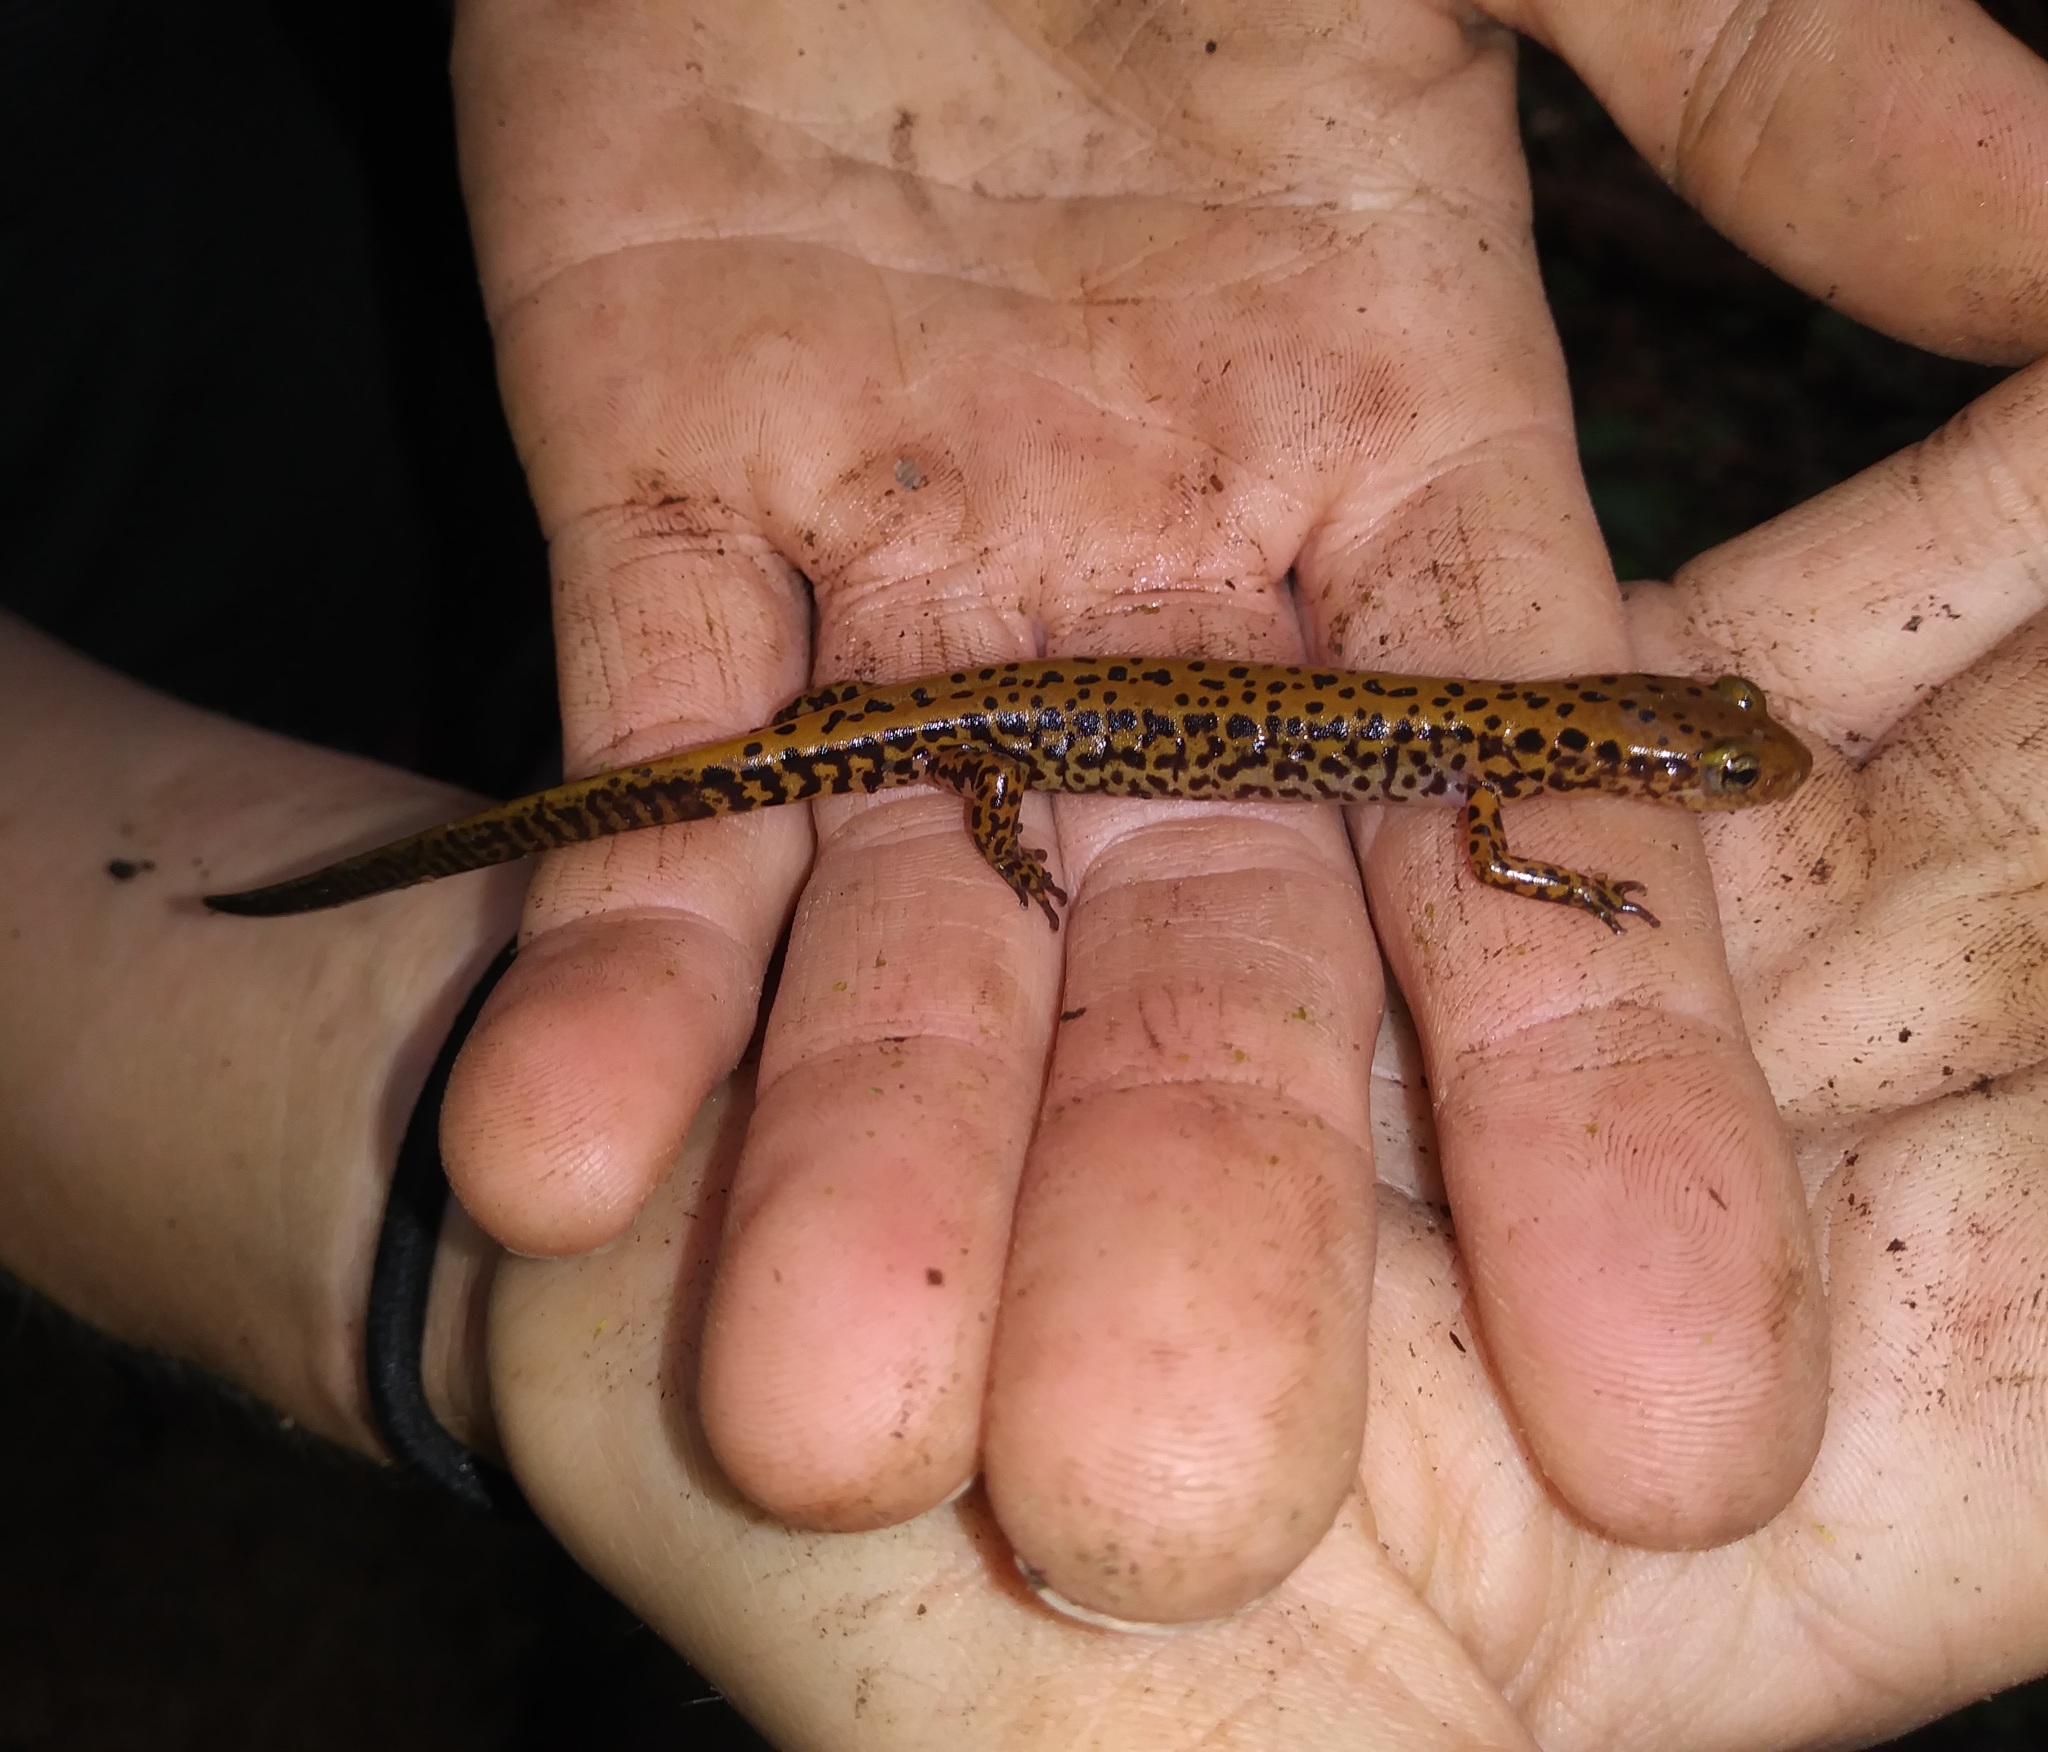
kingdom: Animalia
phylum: Chordata
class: Amphibia
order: Caudata
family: Plethodontidae
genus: Eurycea
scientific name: Eurycea longicauda
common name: Long-tailed salamander
